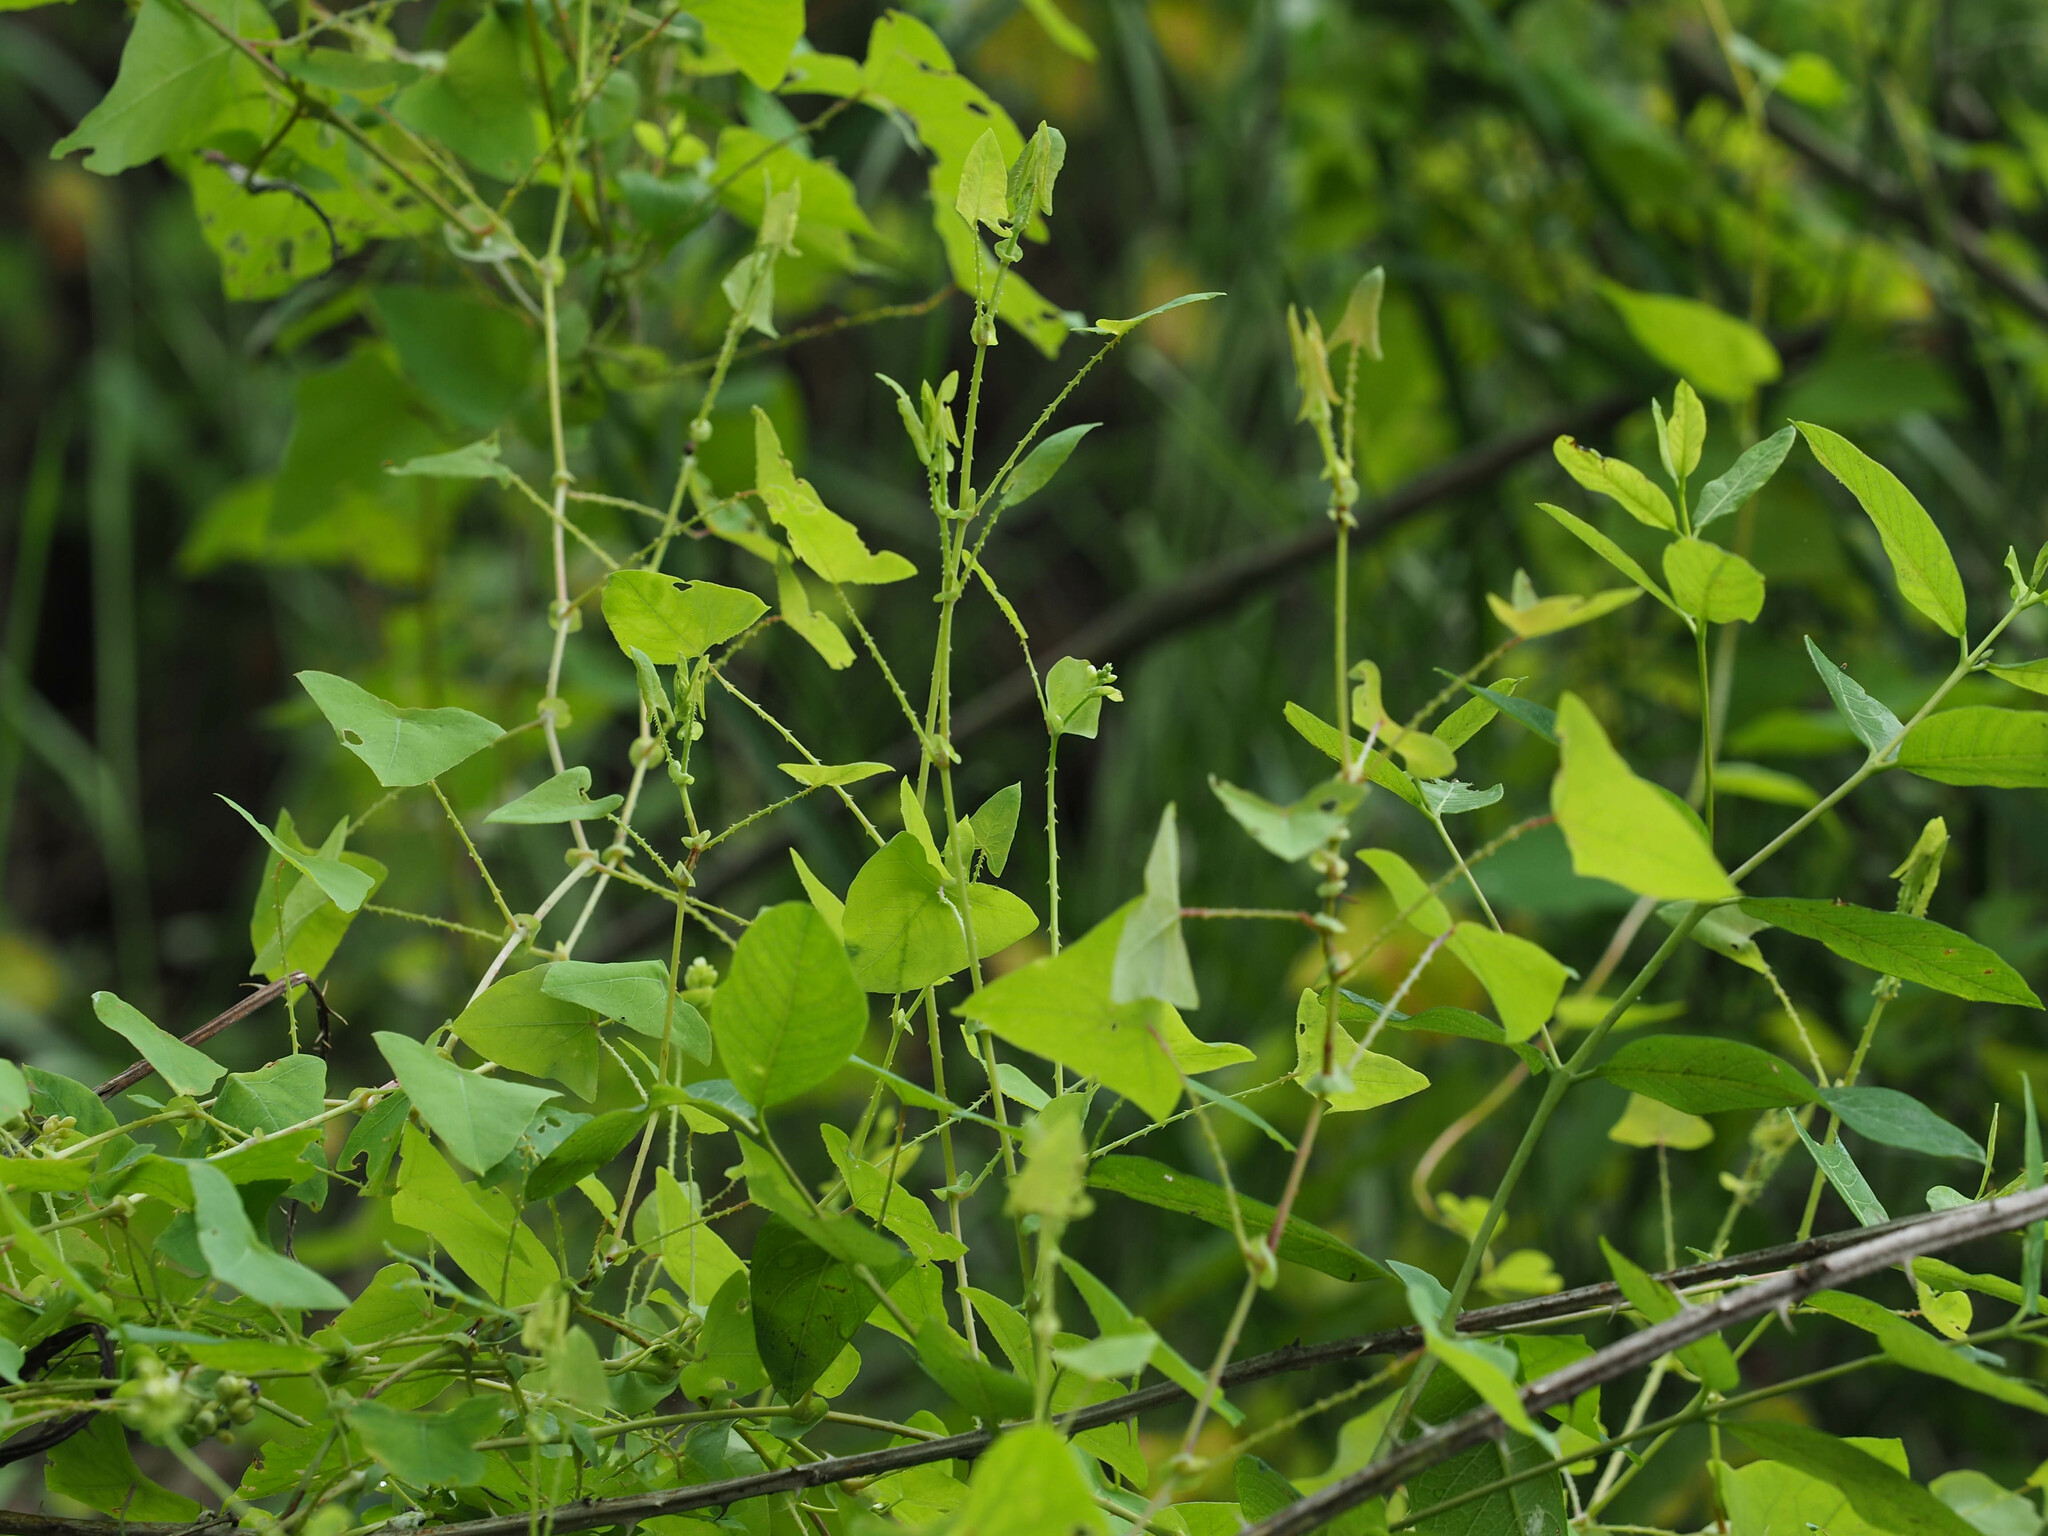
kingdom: Plantae
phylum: Tracheophyta
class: Magnoliopsida
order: Caryophyllales
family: Polygonaceae
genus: Persicaria
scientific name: Persicaria perfoliata
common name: Asiatic tearthumb
